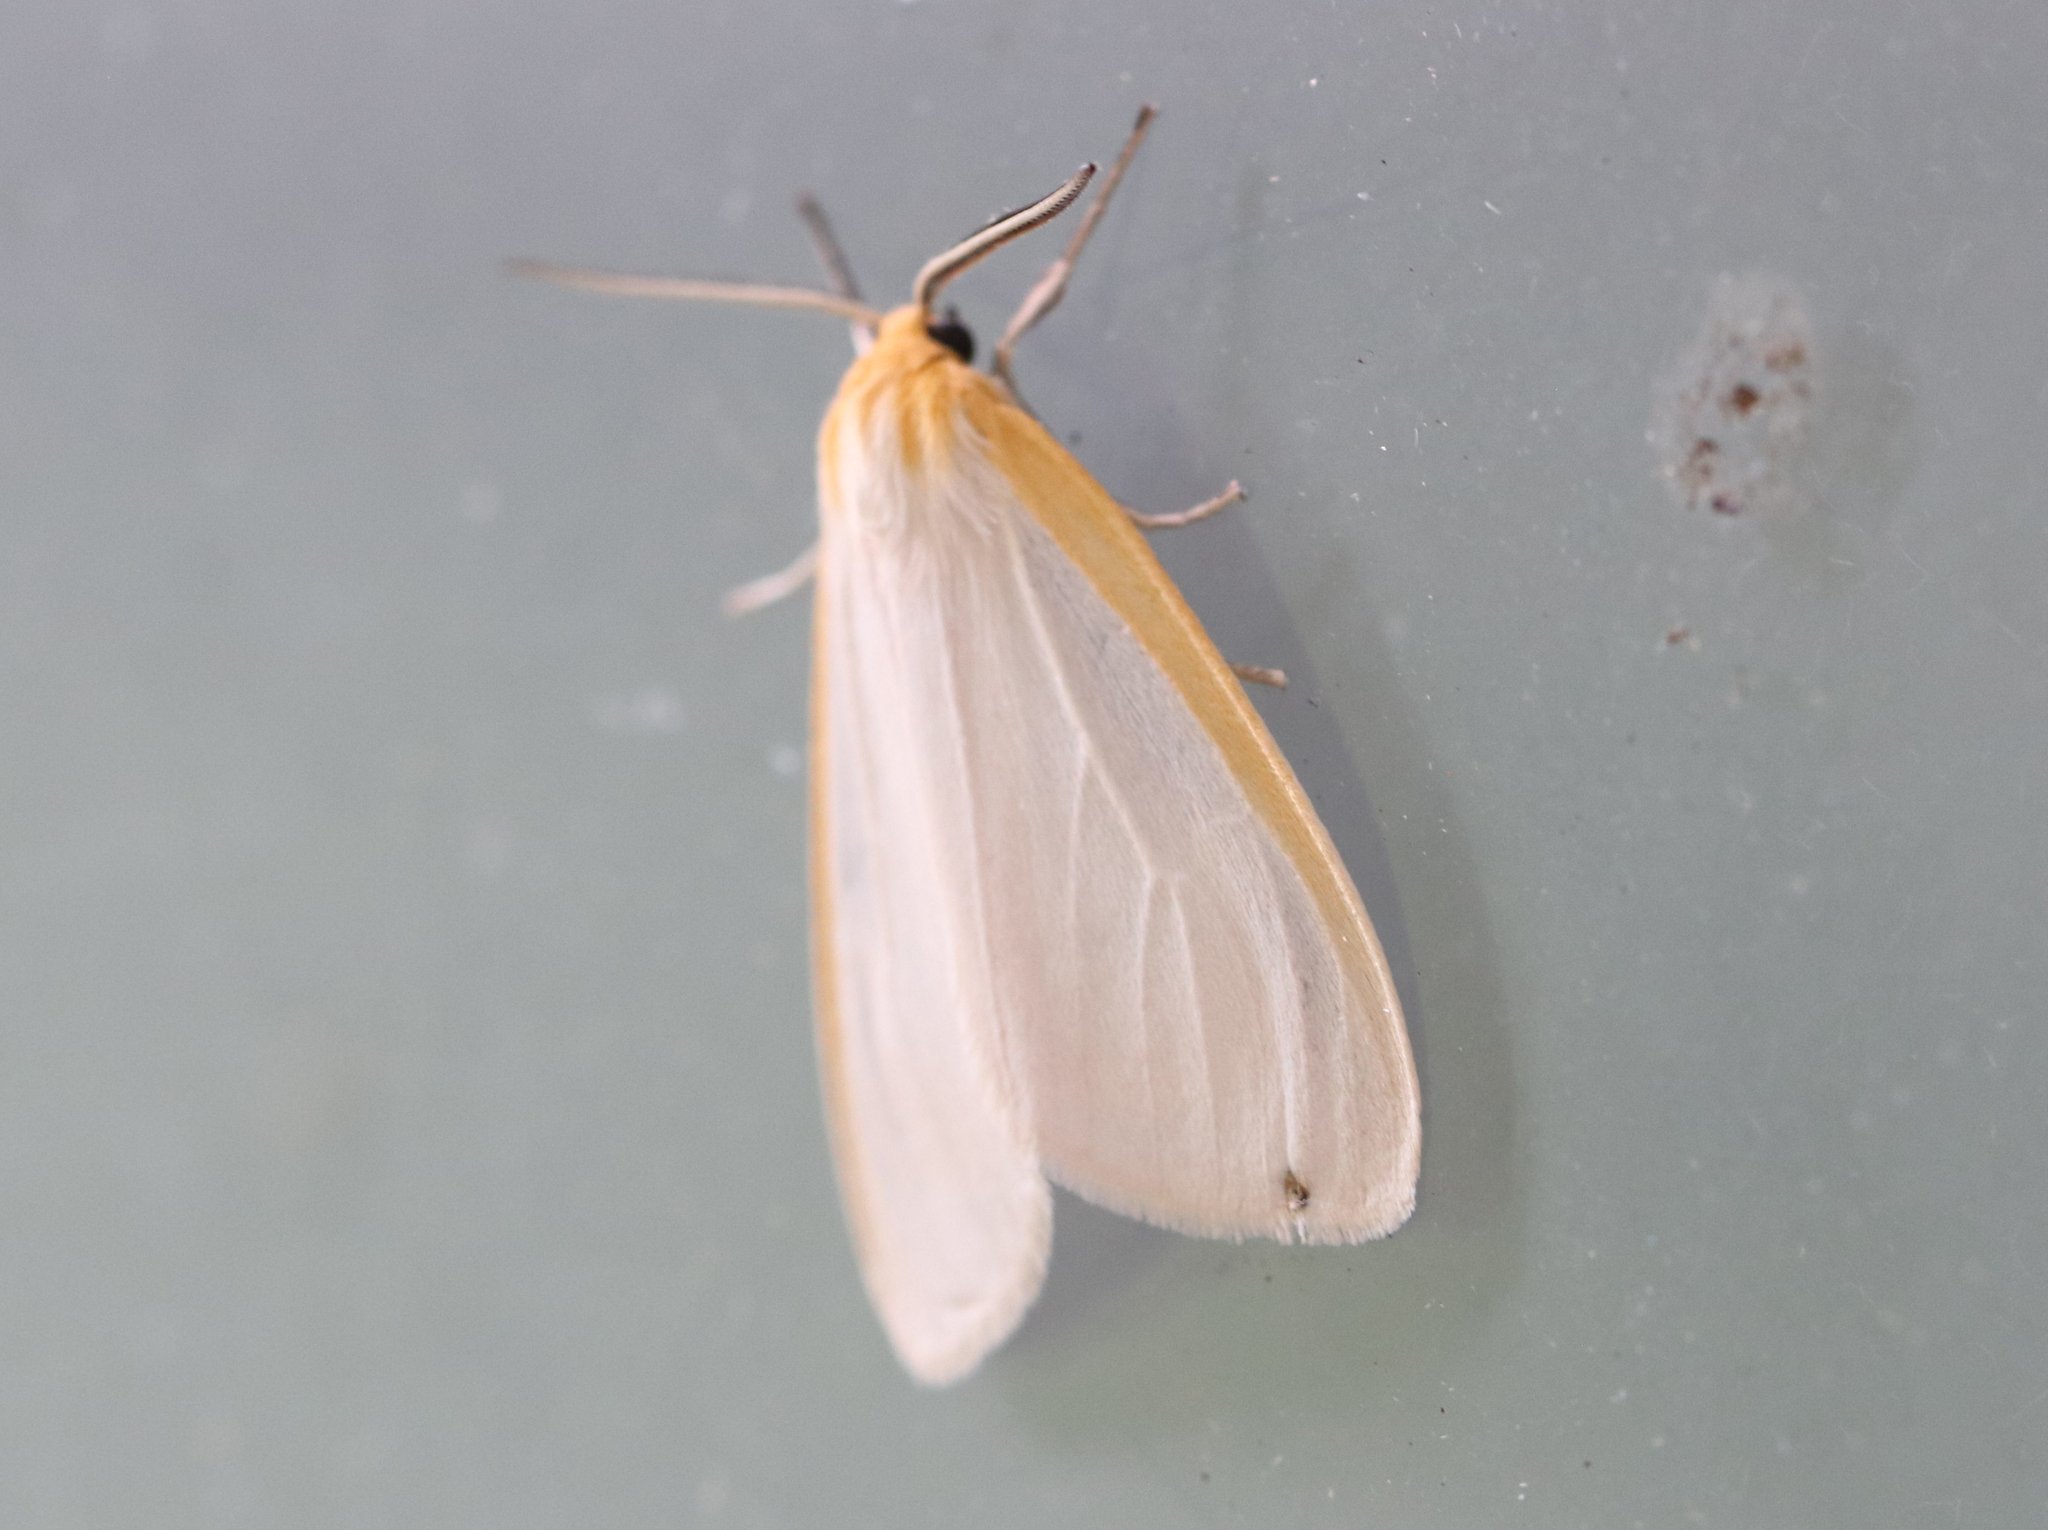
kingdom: Animalia
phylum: Arthropoda
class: Insecta
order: Lepidoptera
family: Erebidae
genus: Cycnia
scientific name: Cycnia tenera
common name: Delicate cycnia moth
